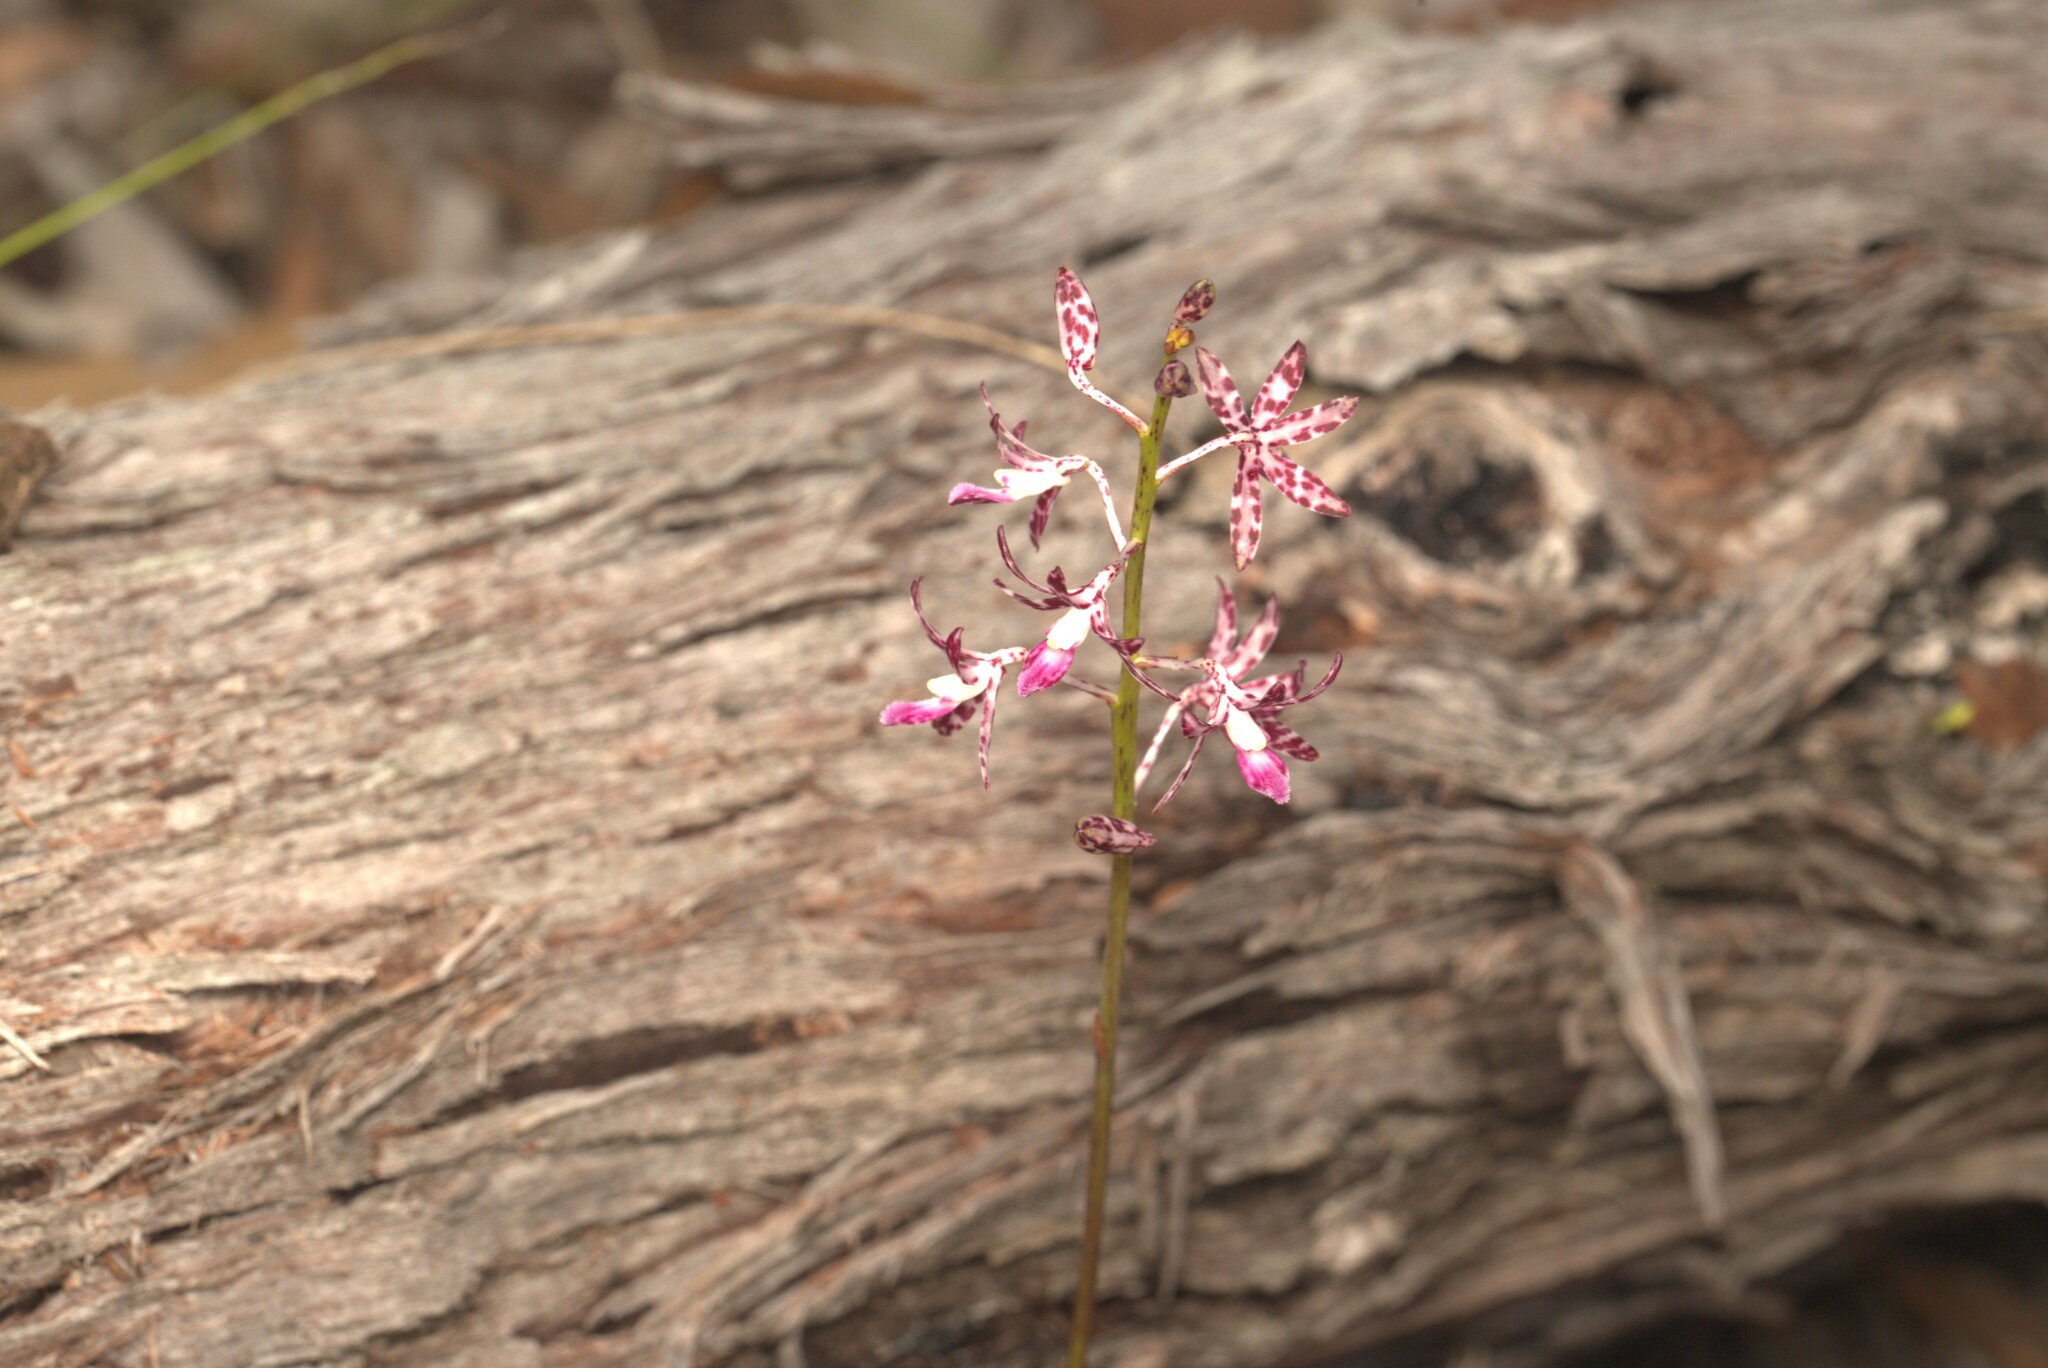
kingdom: Plantae
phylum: Tracheophyta
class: Liliopsida
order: Asparagales
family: Orchidaceae
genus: Dipodium
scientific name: Dipodium variegatum
